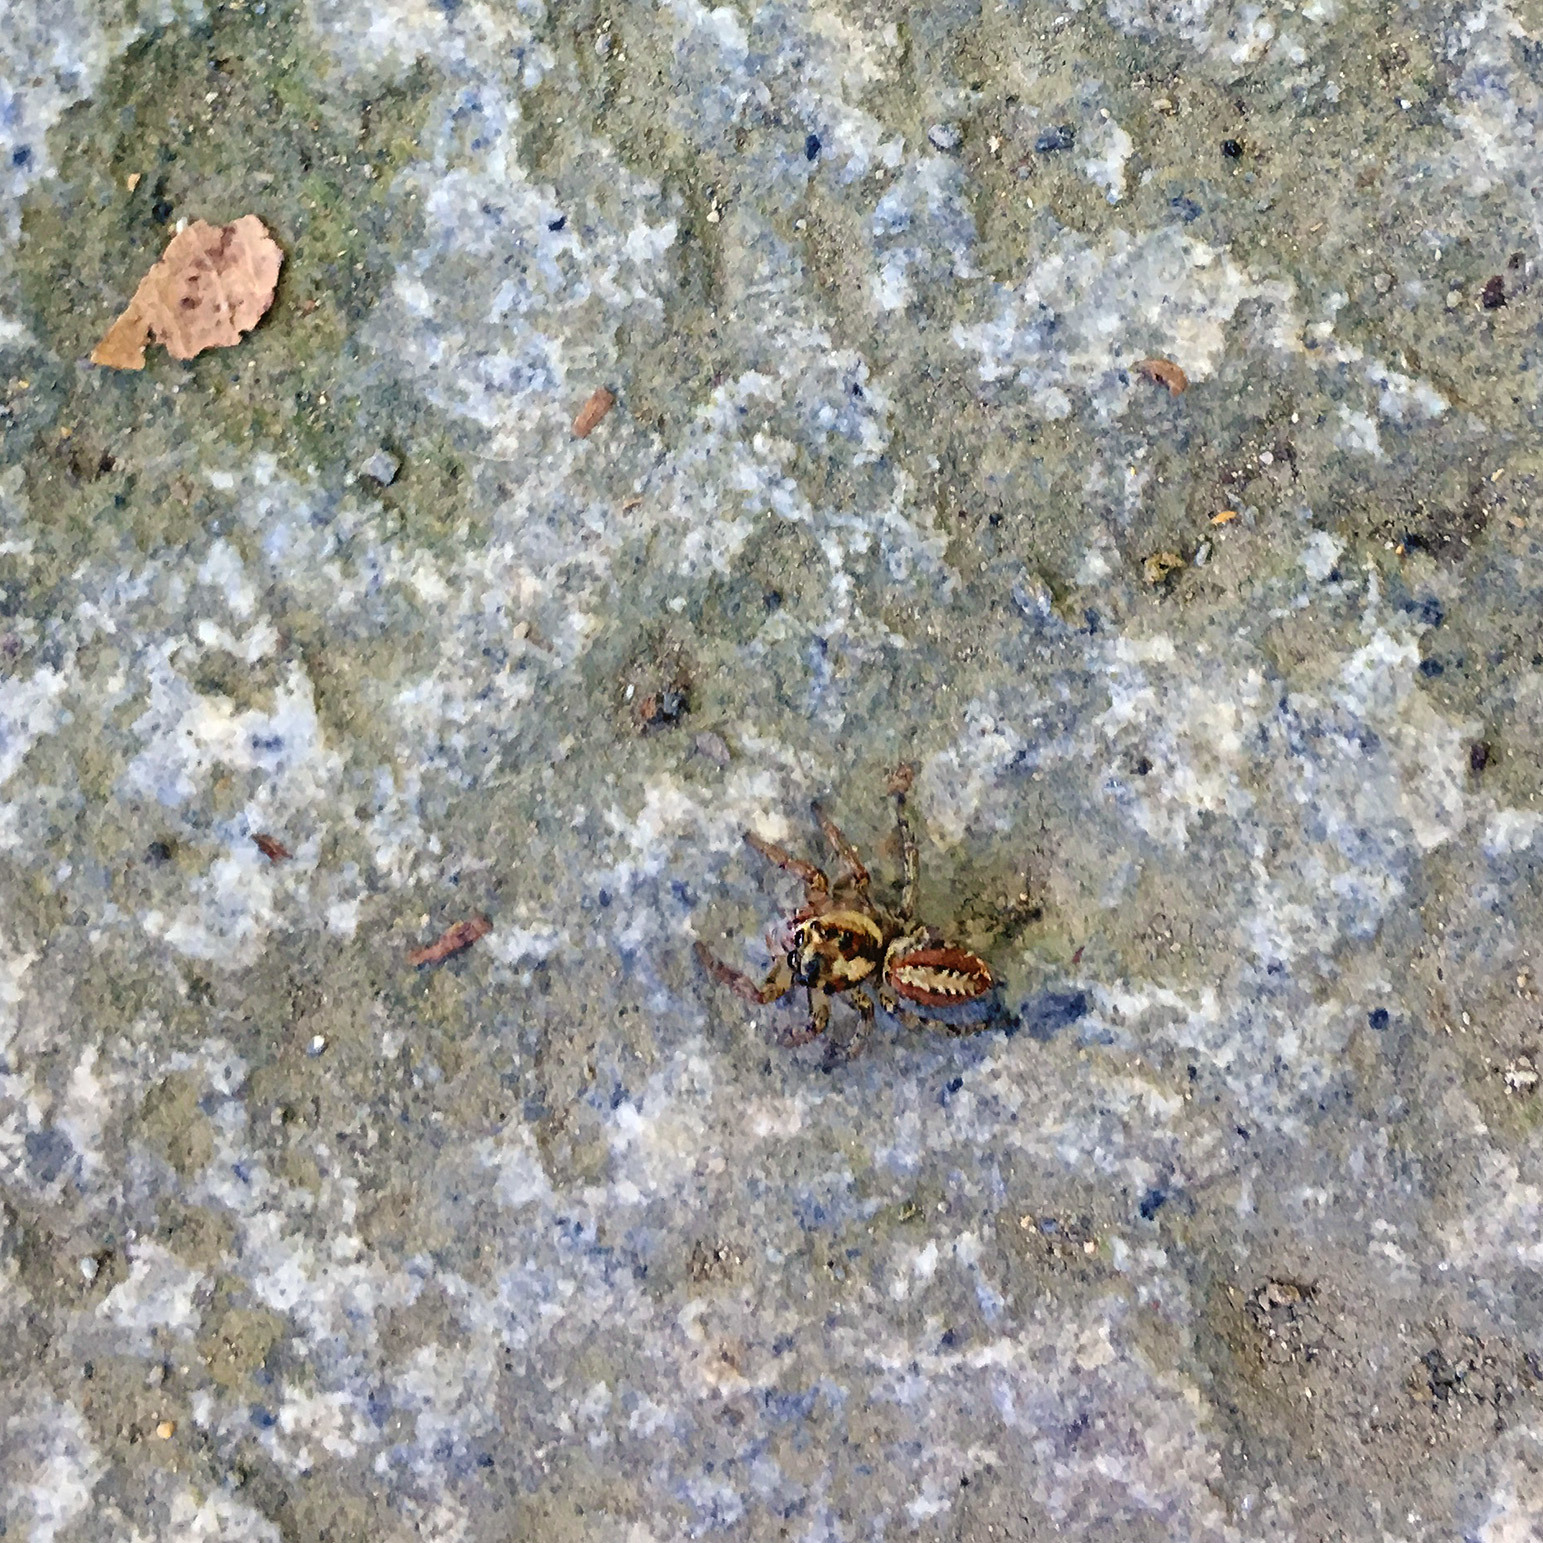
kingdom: Animalia
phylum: Arthropoda
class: Arachnida
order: Araneae
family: Salticidae
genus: Plexippoides
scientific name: Plexippoides doenitzi
